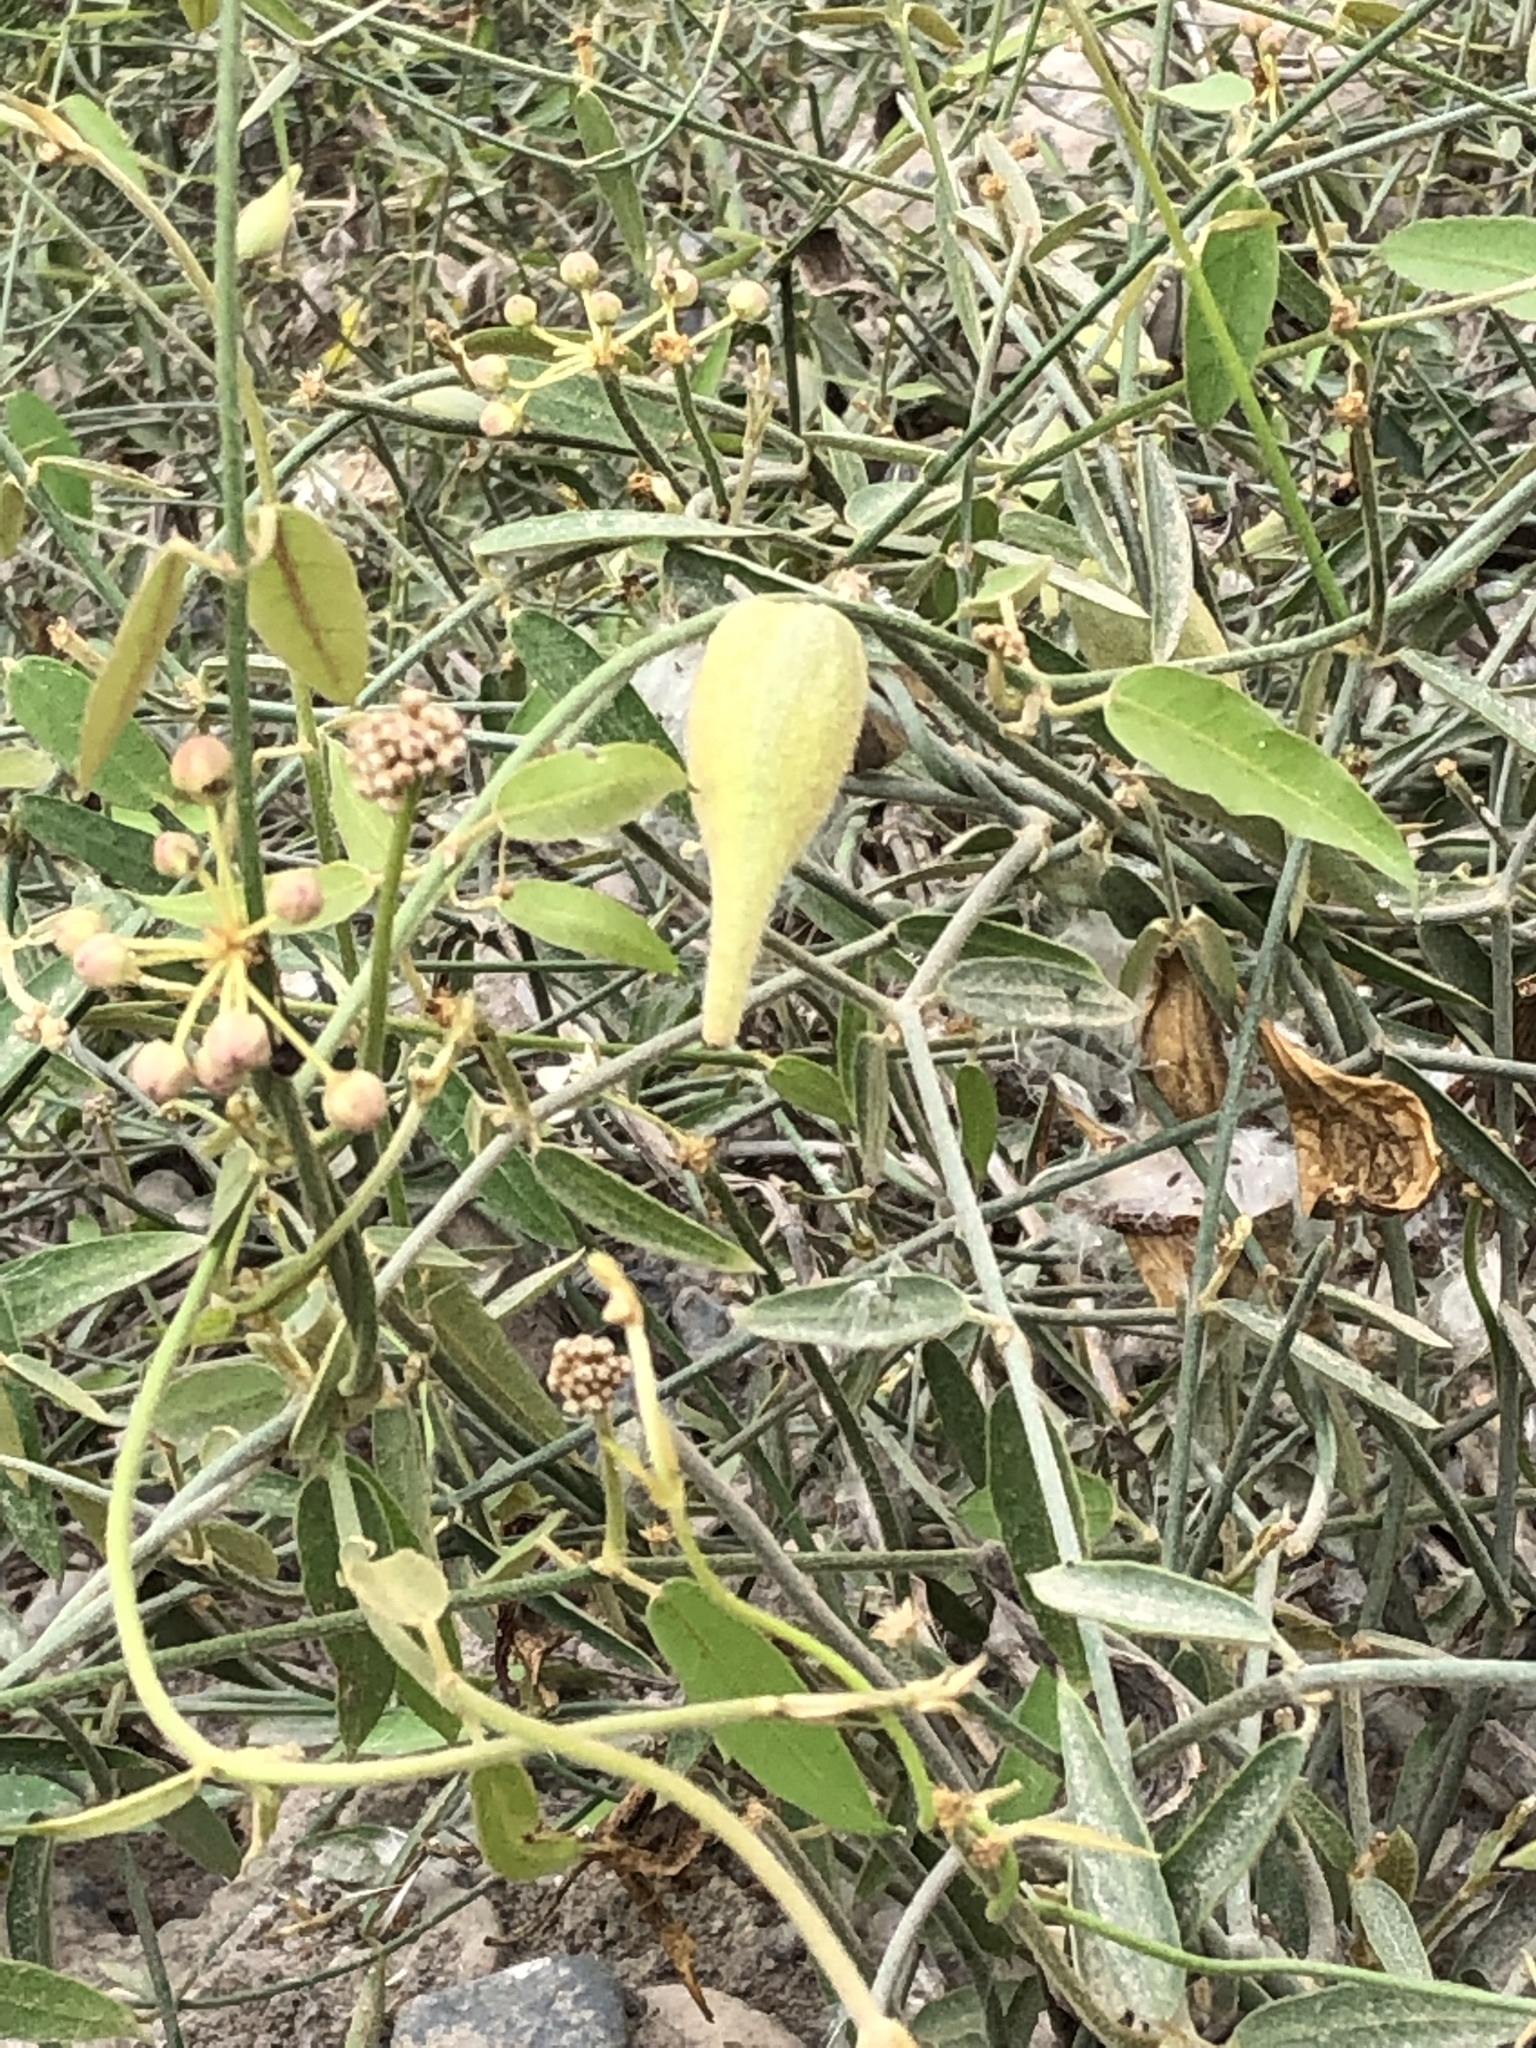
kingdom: Plantae
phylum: Tracheophyta
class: Magnoliopsida
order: Gentianales
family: Apocynaceae
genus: Funastrum
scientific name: Funastrum clausum
